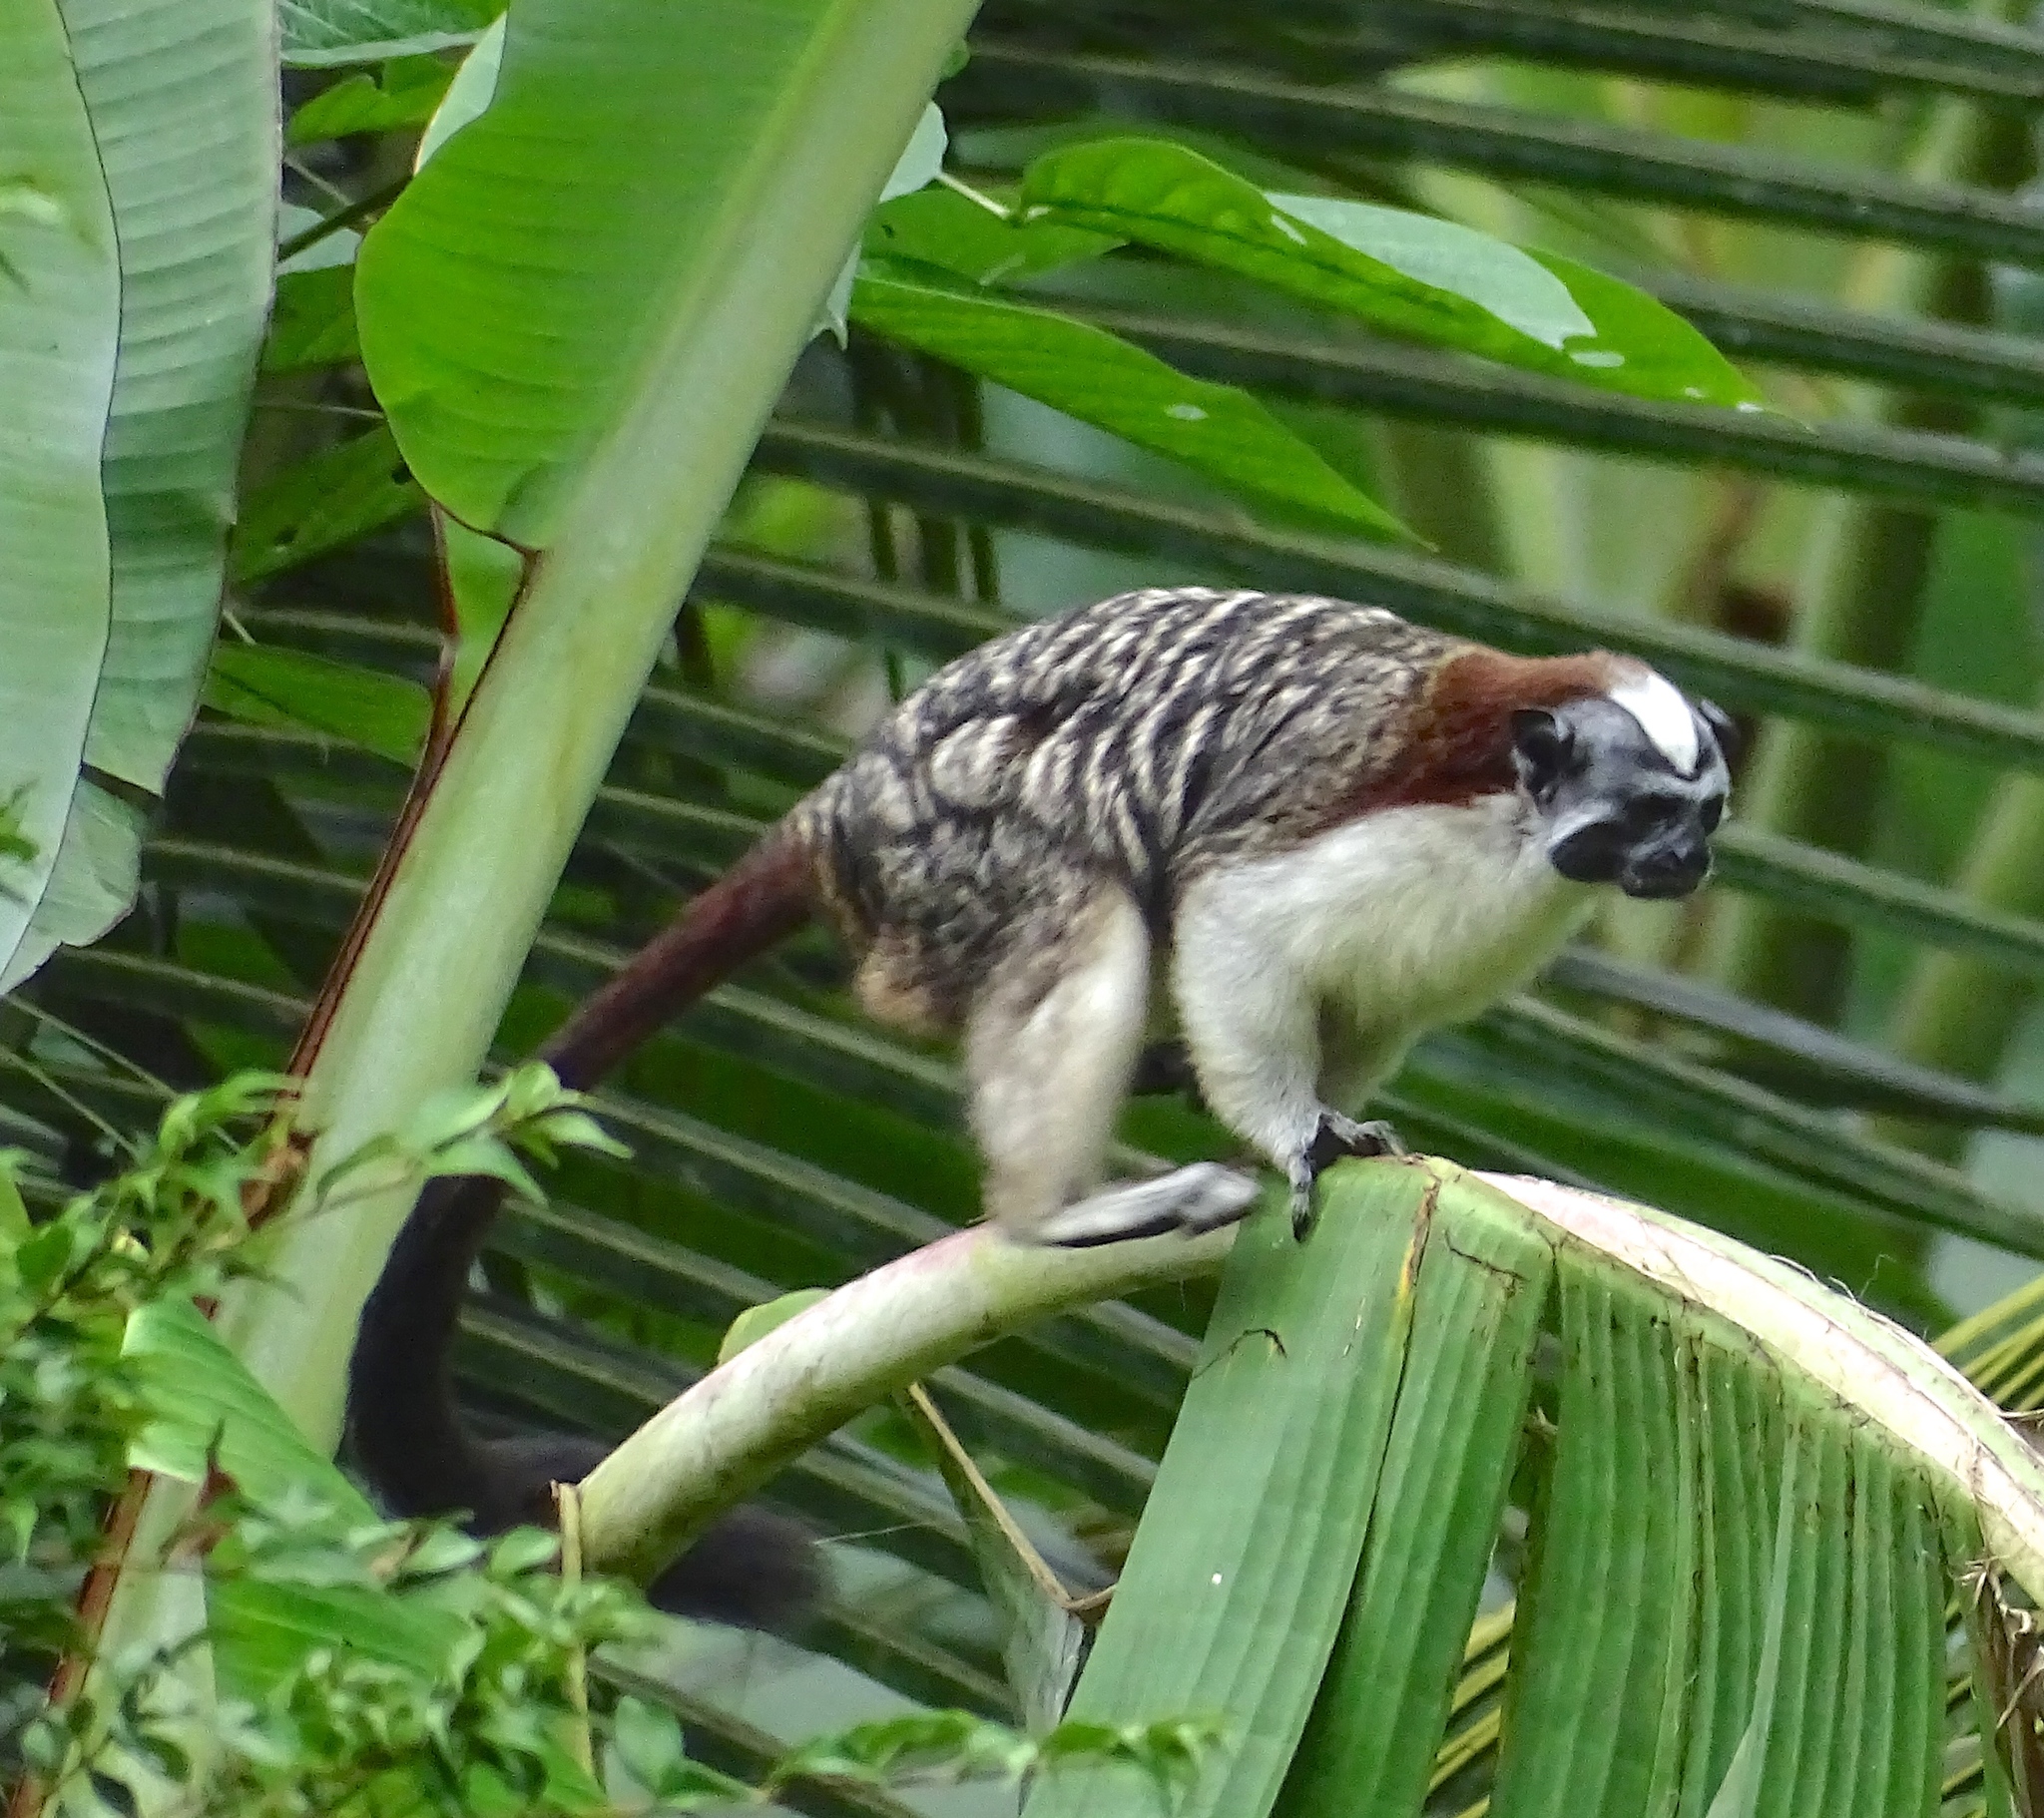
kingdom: Animalia
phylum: Chordata
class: Mammalia
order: Primates
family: Callitrichidae
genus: Saguinus
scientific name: Saguinus geoffroyi
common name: Geoffroy s tamarin
